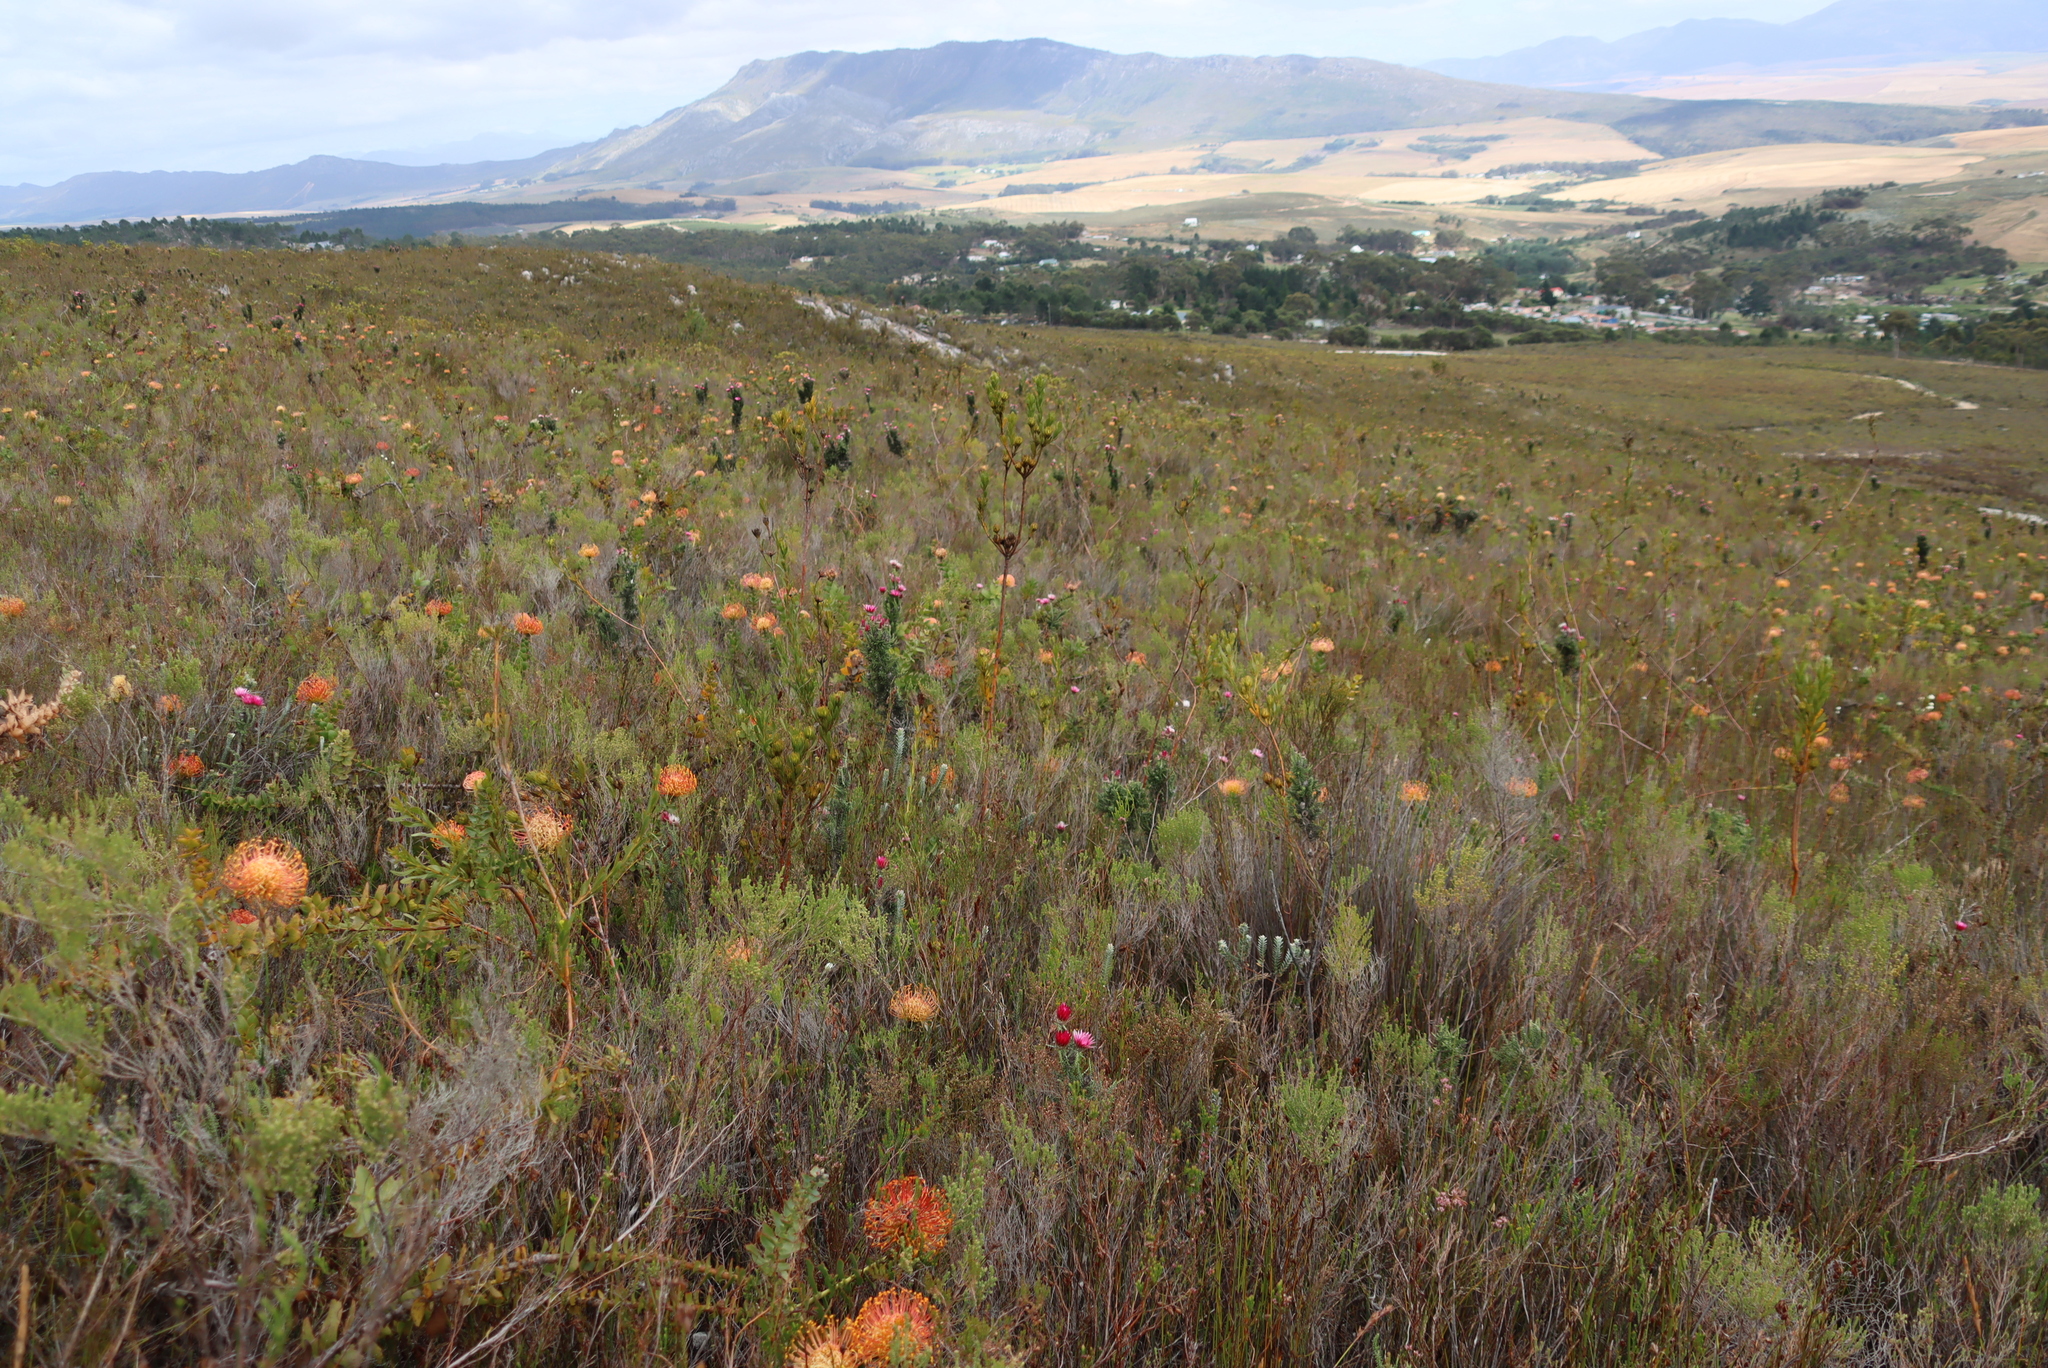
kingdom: Plantae
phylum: Tracheophyta
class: Magnoliopsida
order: Proteales
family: Proteaceae
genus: Leucospermum
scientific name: Leucospermum cordifolium
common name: Red pincushion-protea
